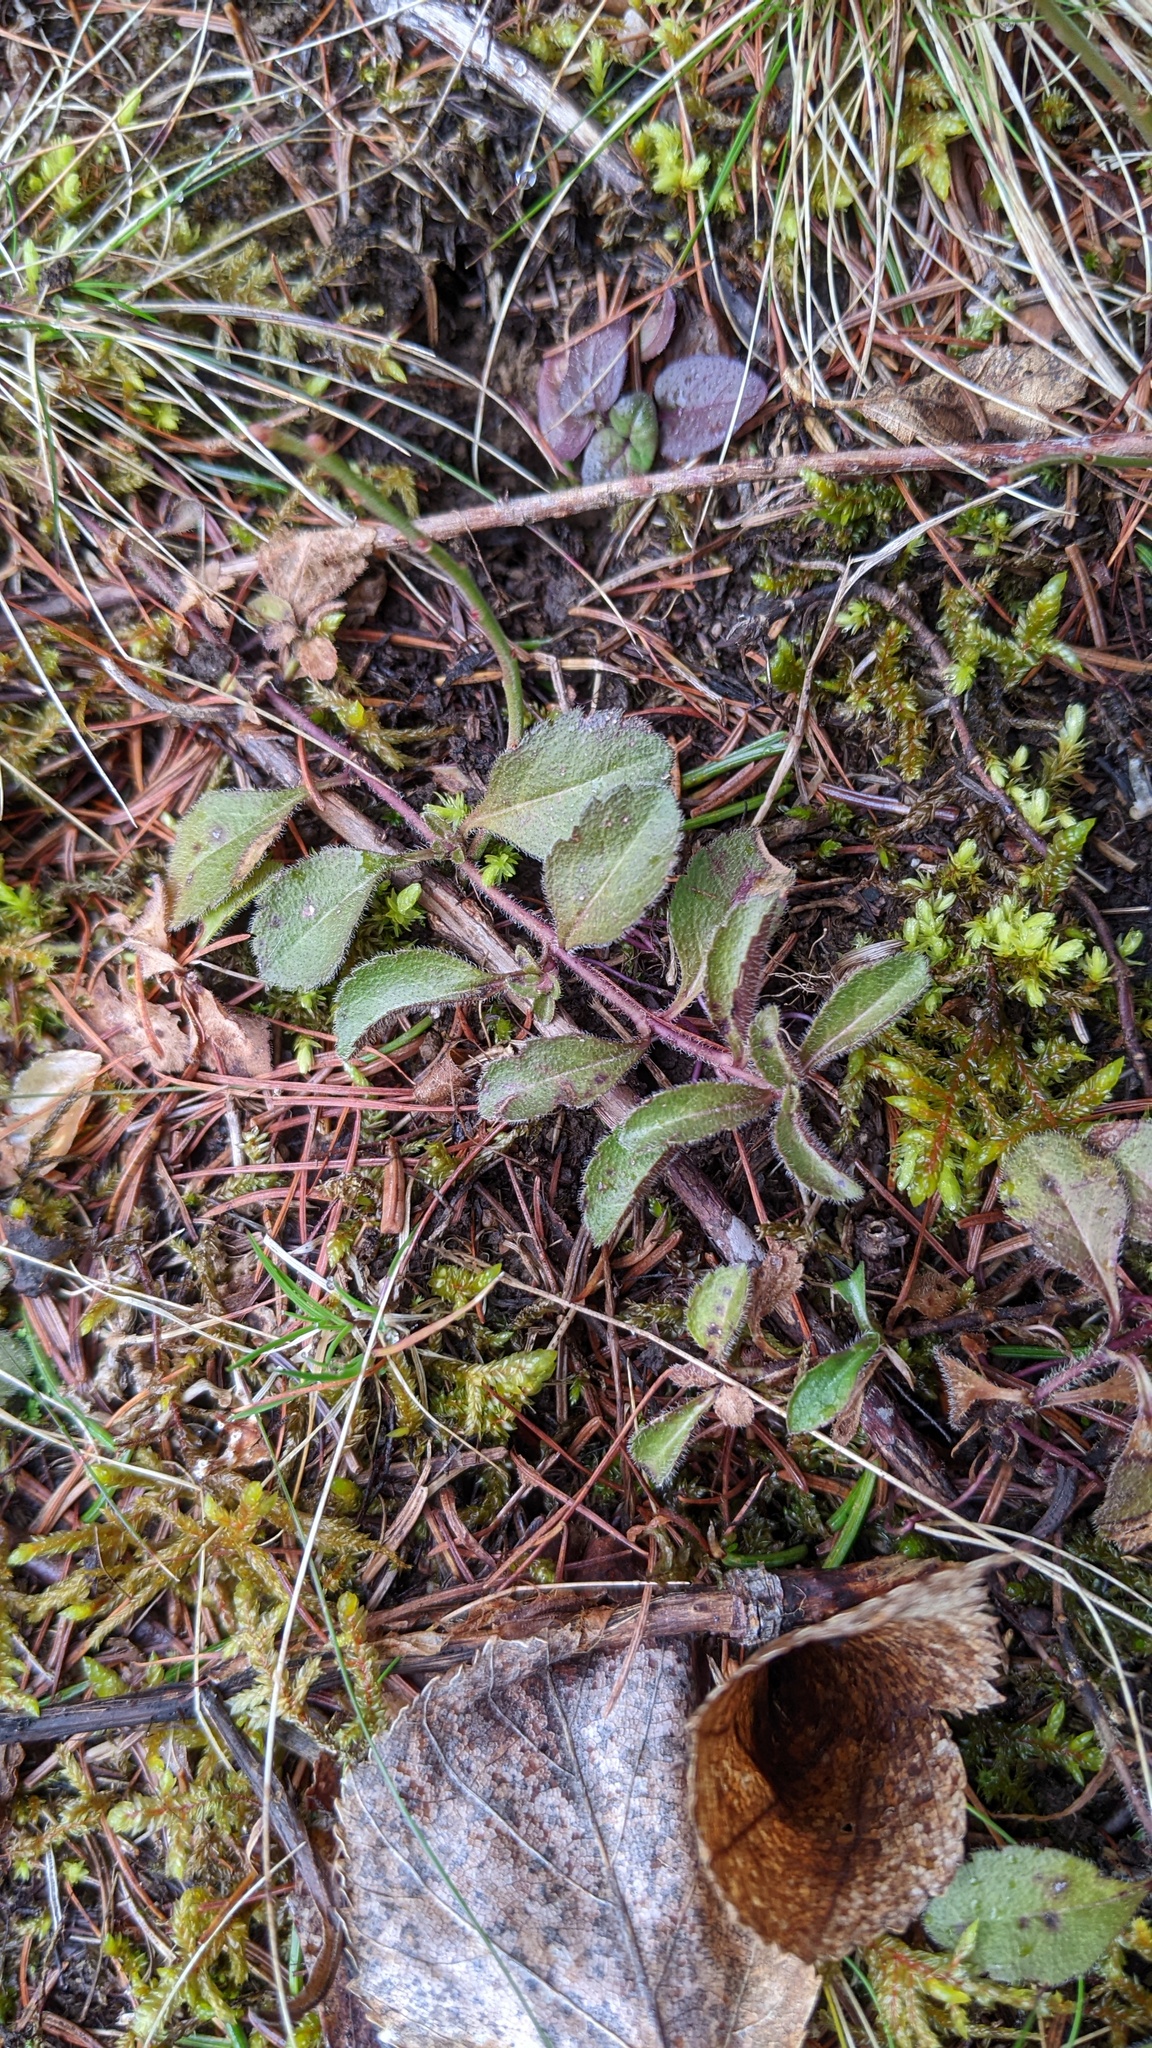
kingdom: Plantae
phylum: Tracheophyta
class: Magnoliopsida
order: Lamiales
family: Plantaginaceae
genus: Veronica
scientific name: Veronica officinalis
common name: Common speedwell
